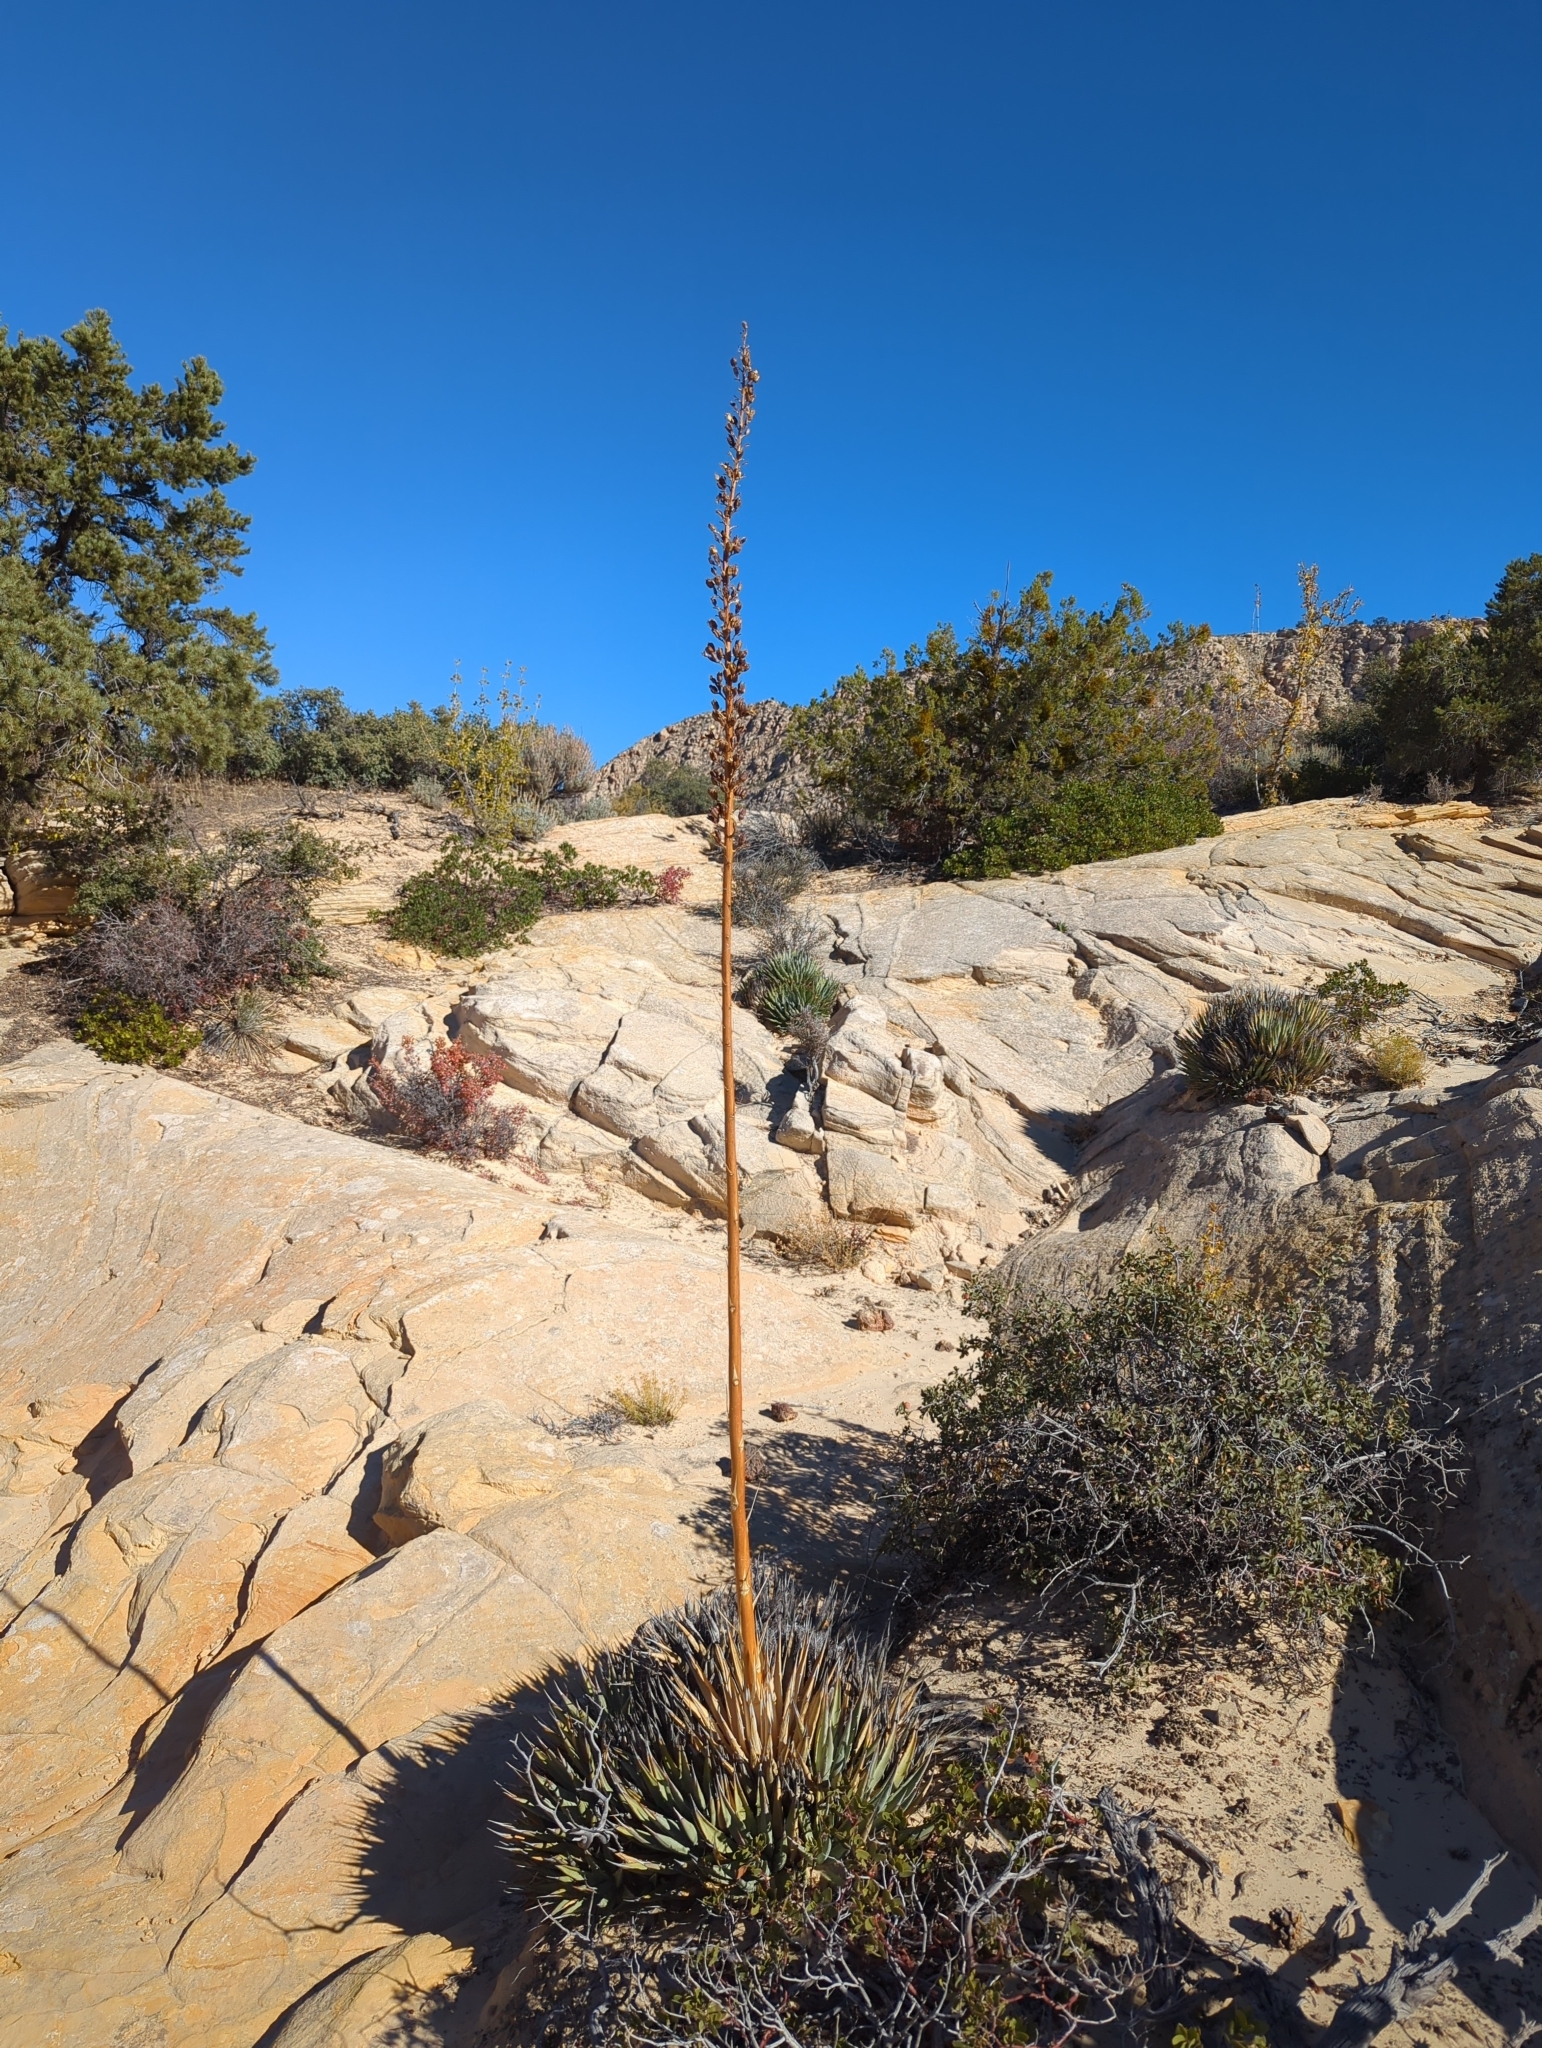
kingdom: Plantae
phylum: Tracheophyta
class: Liliopsida
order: Asparagales
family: Asparagaceae
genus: Agave
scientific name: Agave utahensis
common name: Utah agave
